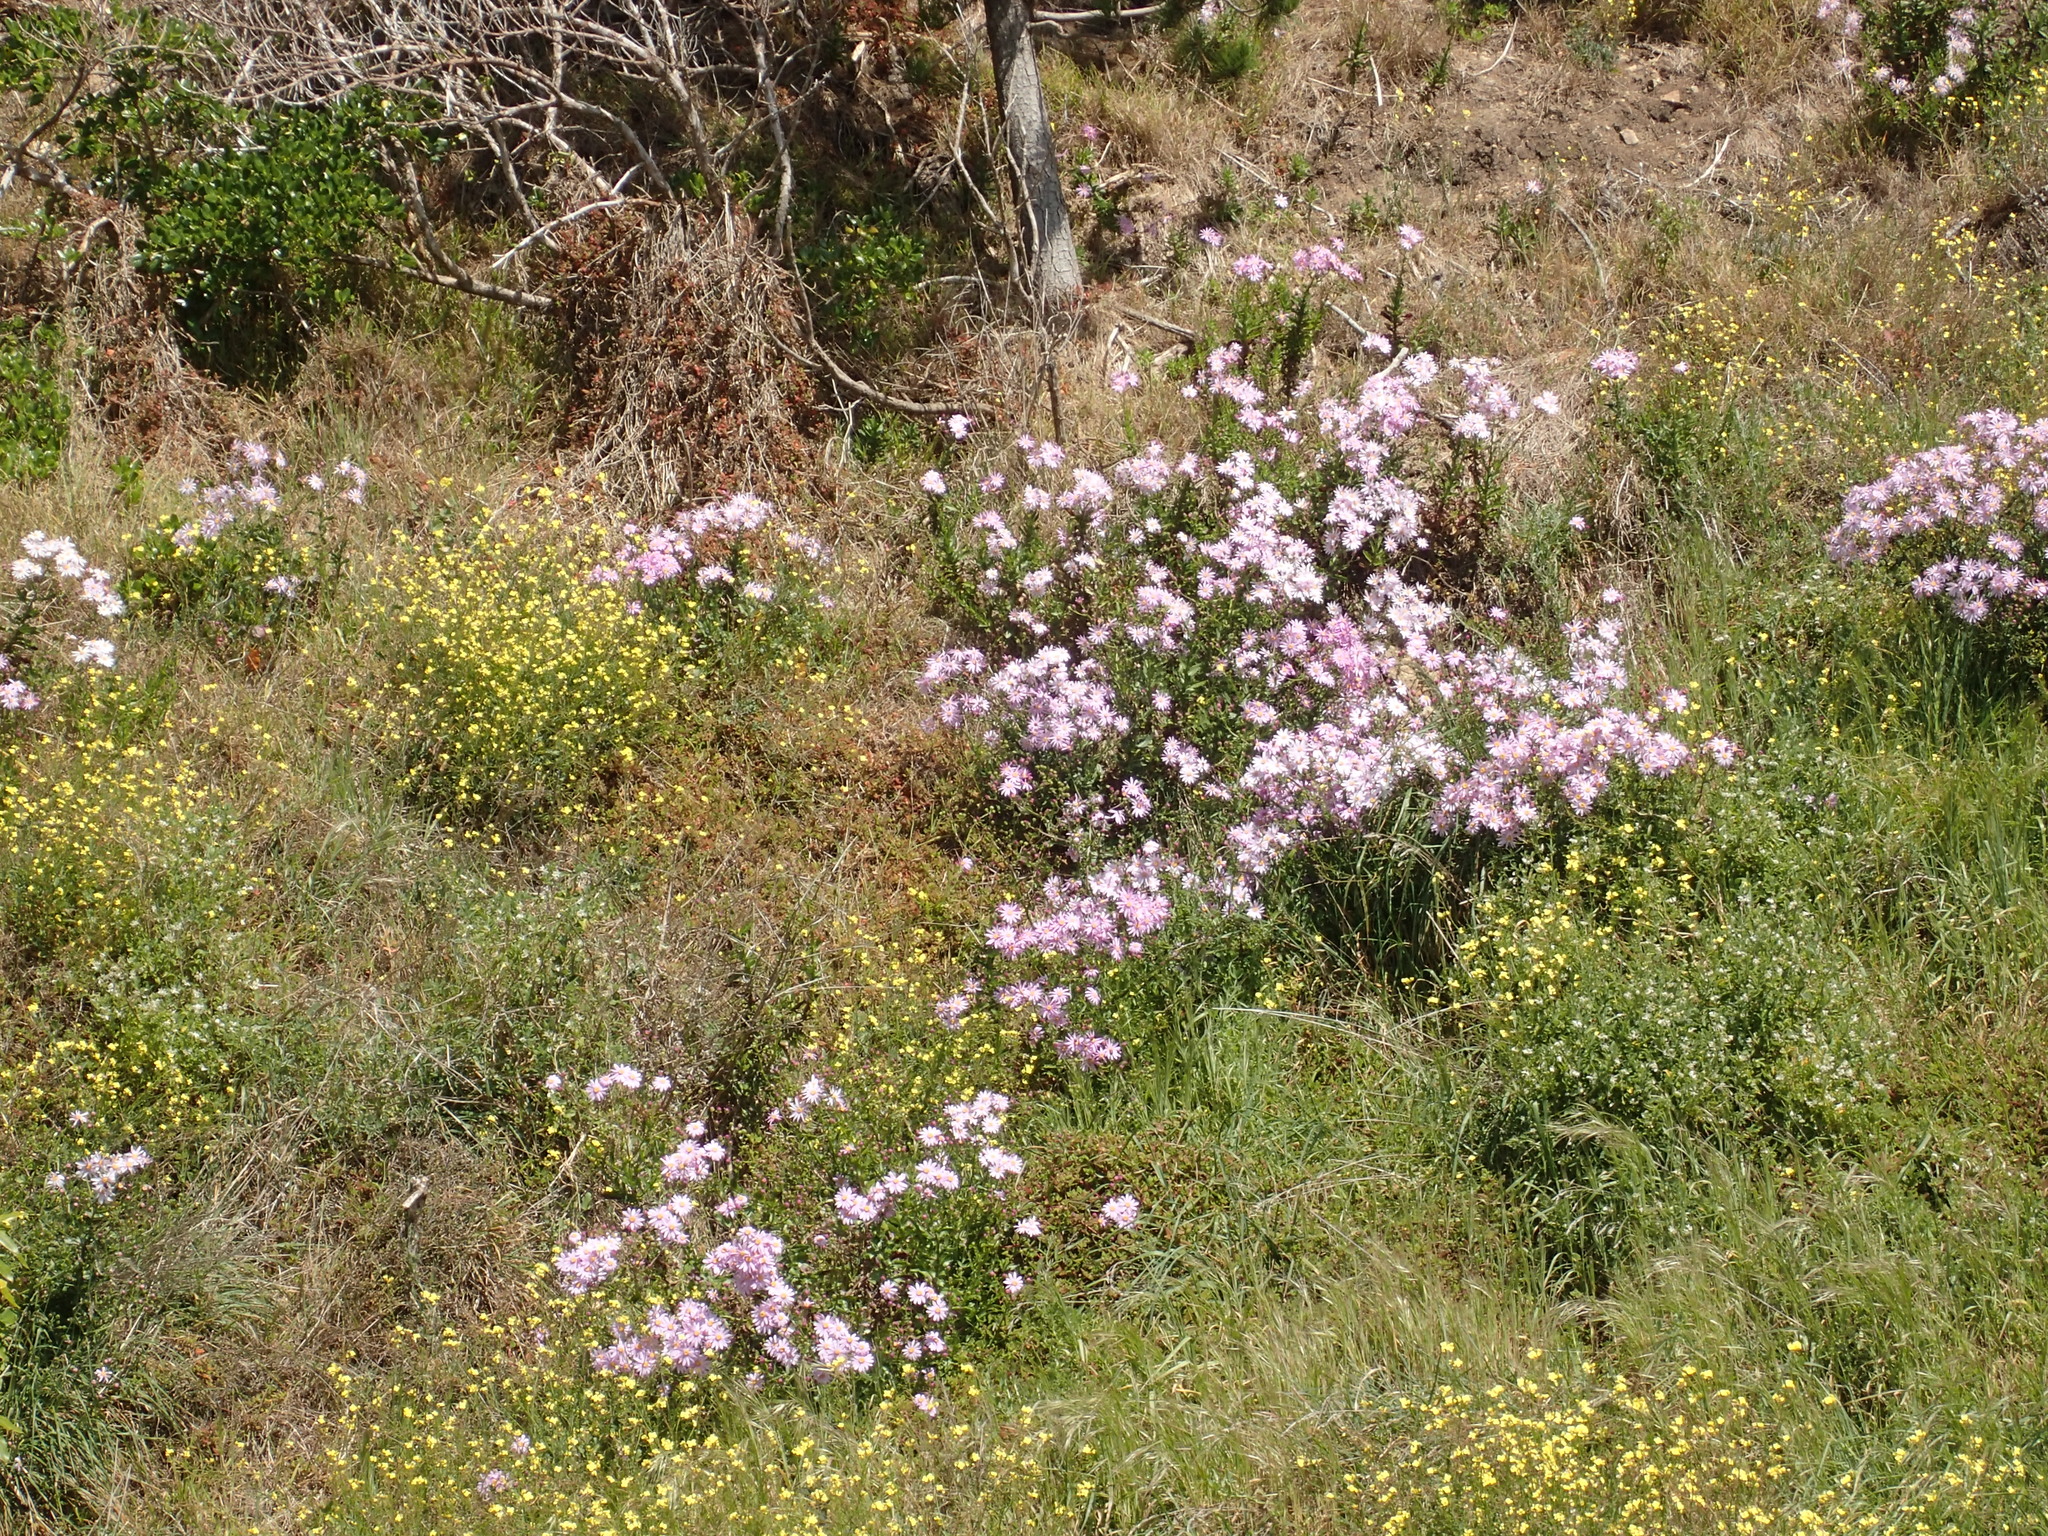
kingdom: Plantae
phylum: Tracheophyta
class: Magnoliopsida
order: Asterales
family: Asteraceae
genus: Senecio
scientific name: Senecio glastifolius
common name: Woad-leaved ragwort
